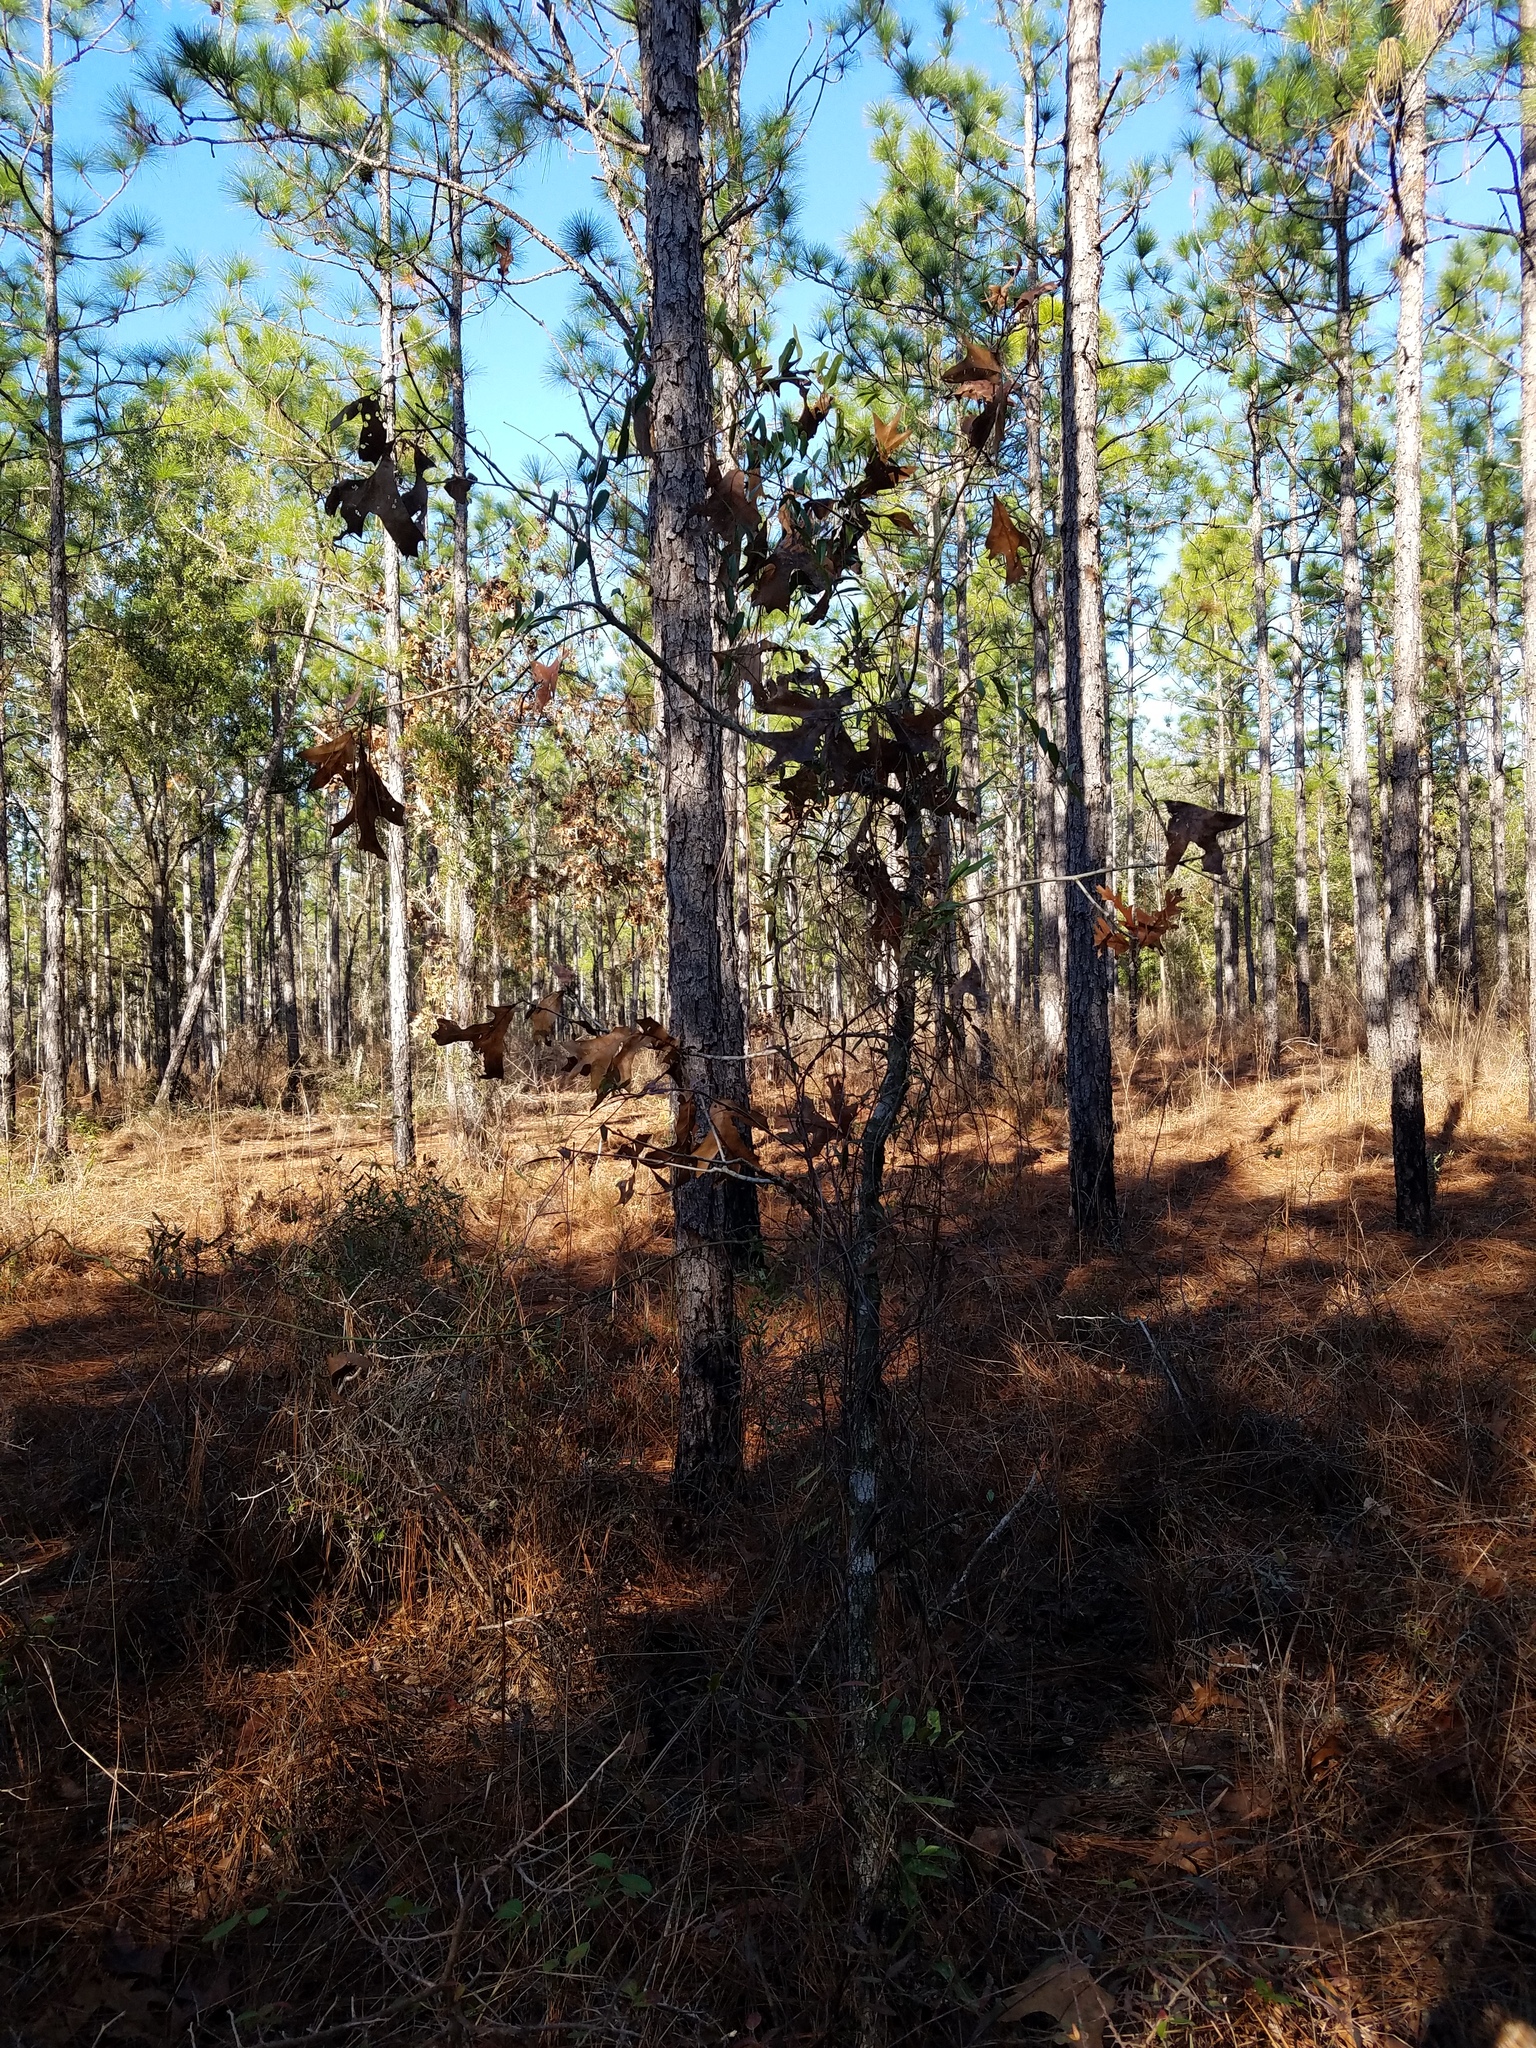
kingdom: Plantae
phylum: Tracheophyta
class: Magnoliopsida
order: Fagales
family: Fagaceae
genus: Quercus
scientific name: Quercus laevis
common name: Turkey oak
